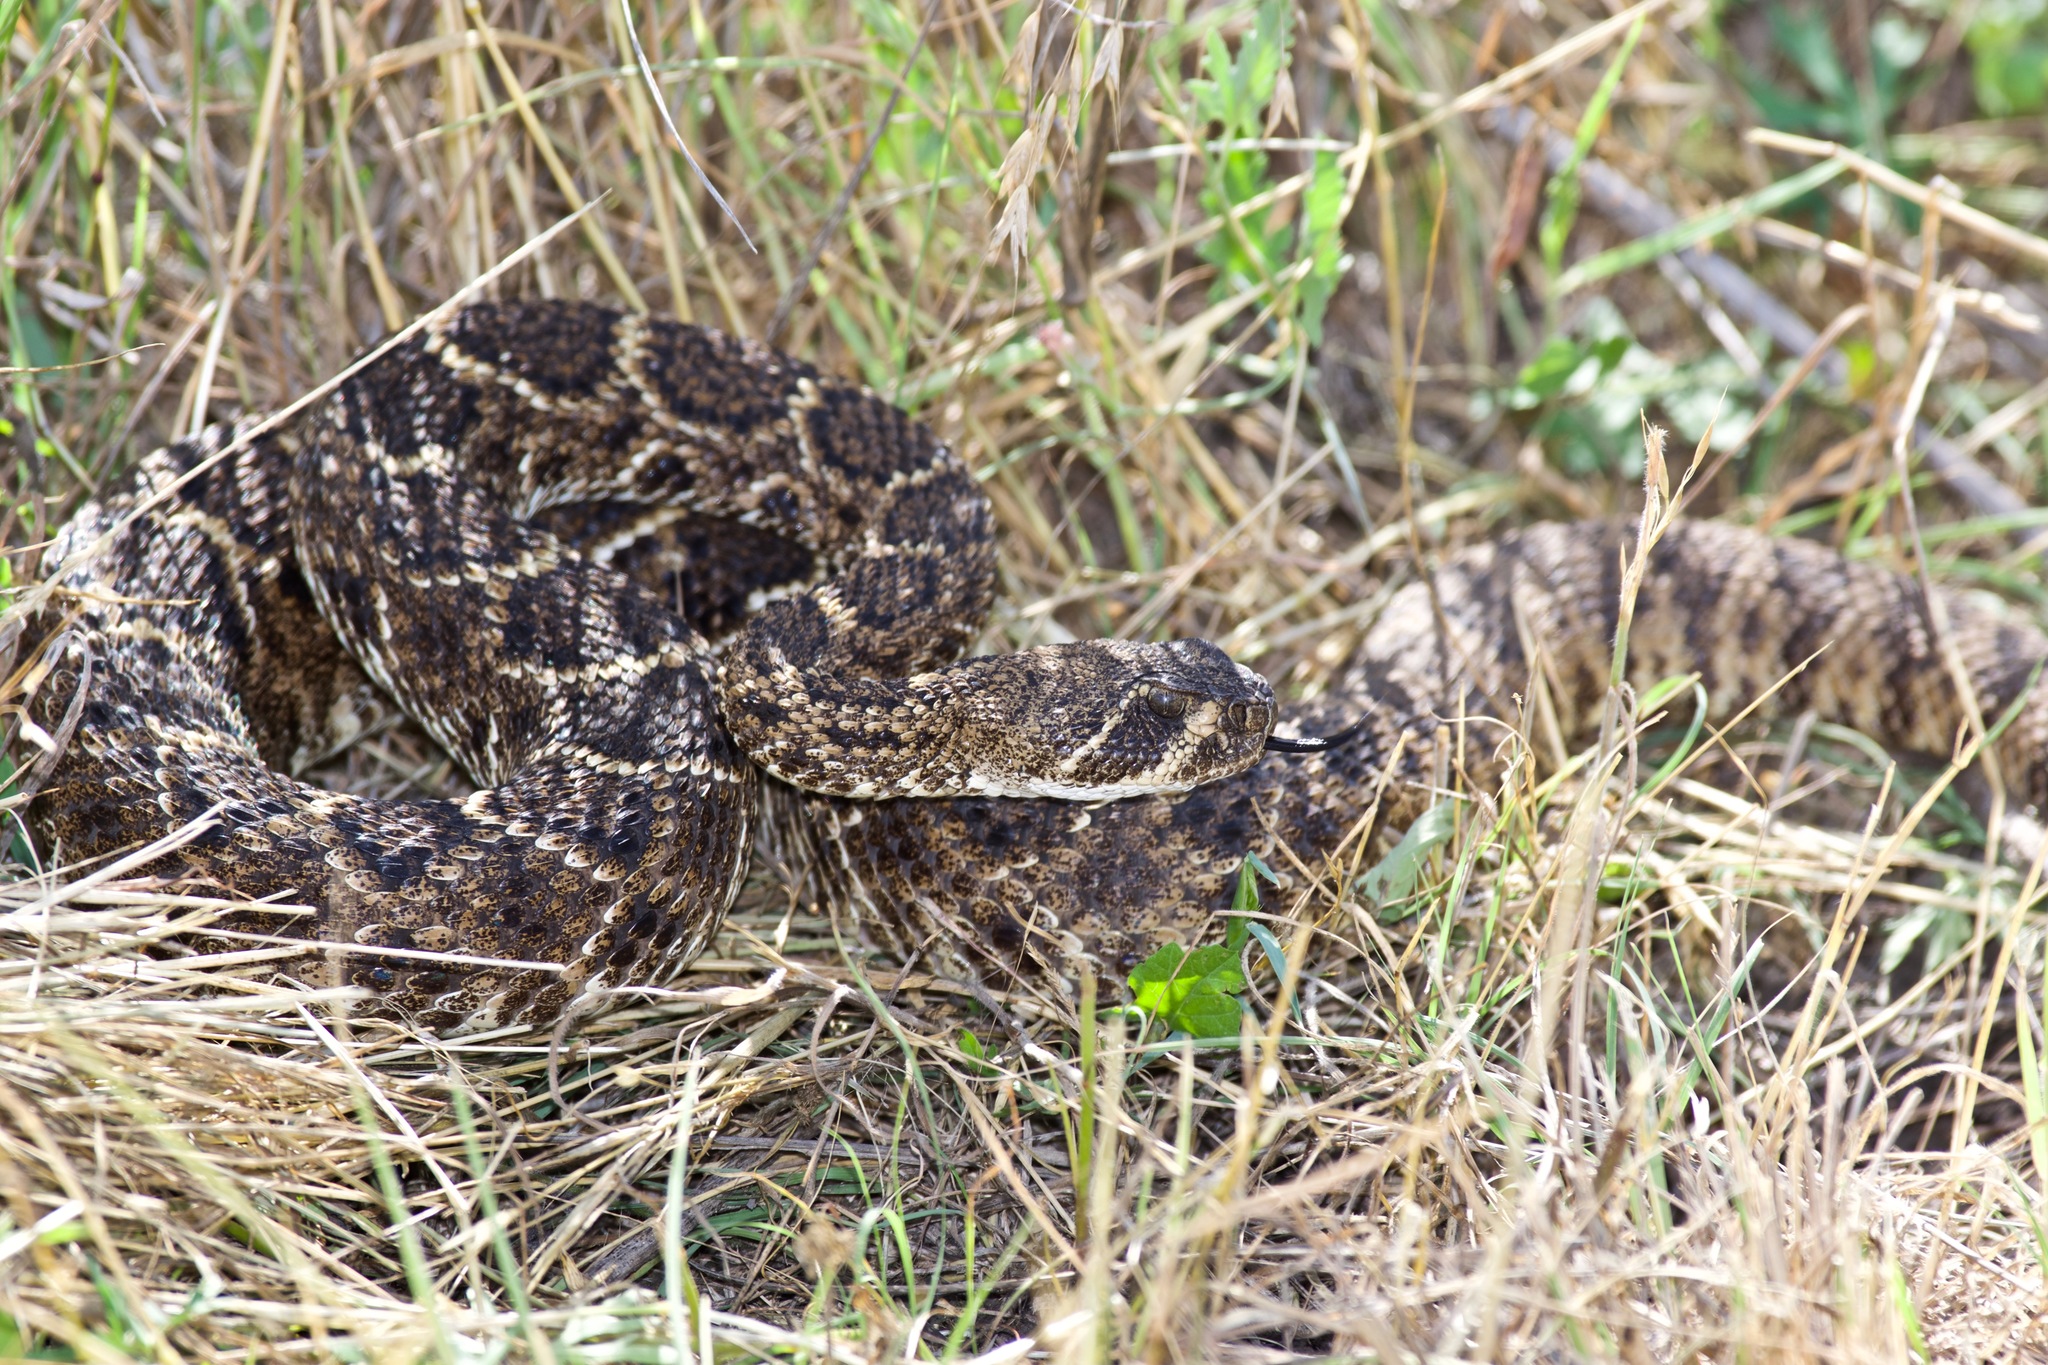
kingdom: Animalia
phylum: Chordata
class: Squamata
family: Viperidae
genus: Crotalus
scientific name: Crotalus atrox
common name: Western diamond-backed rattlesnake
